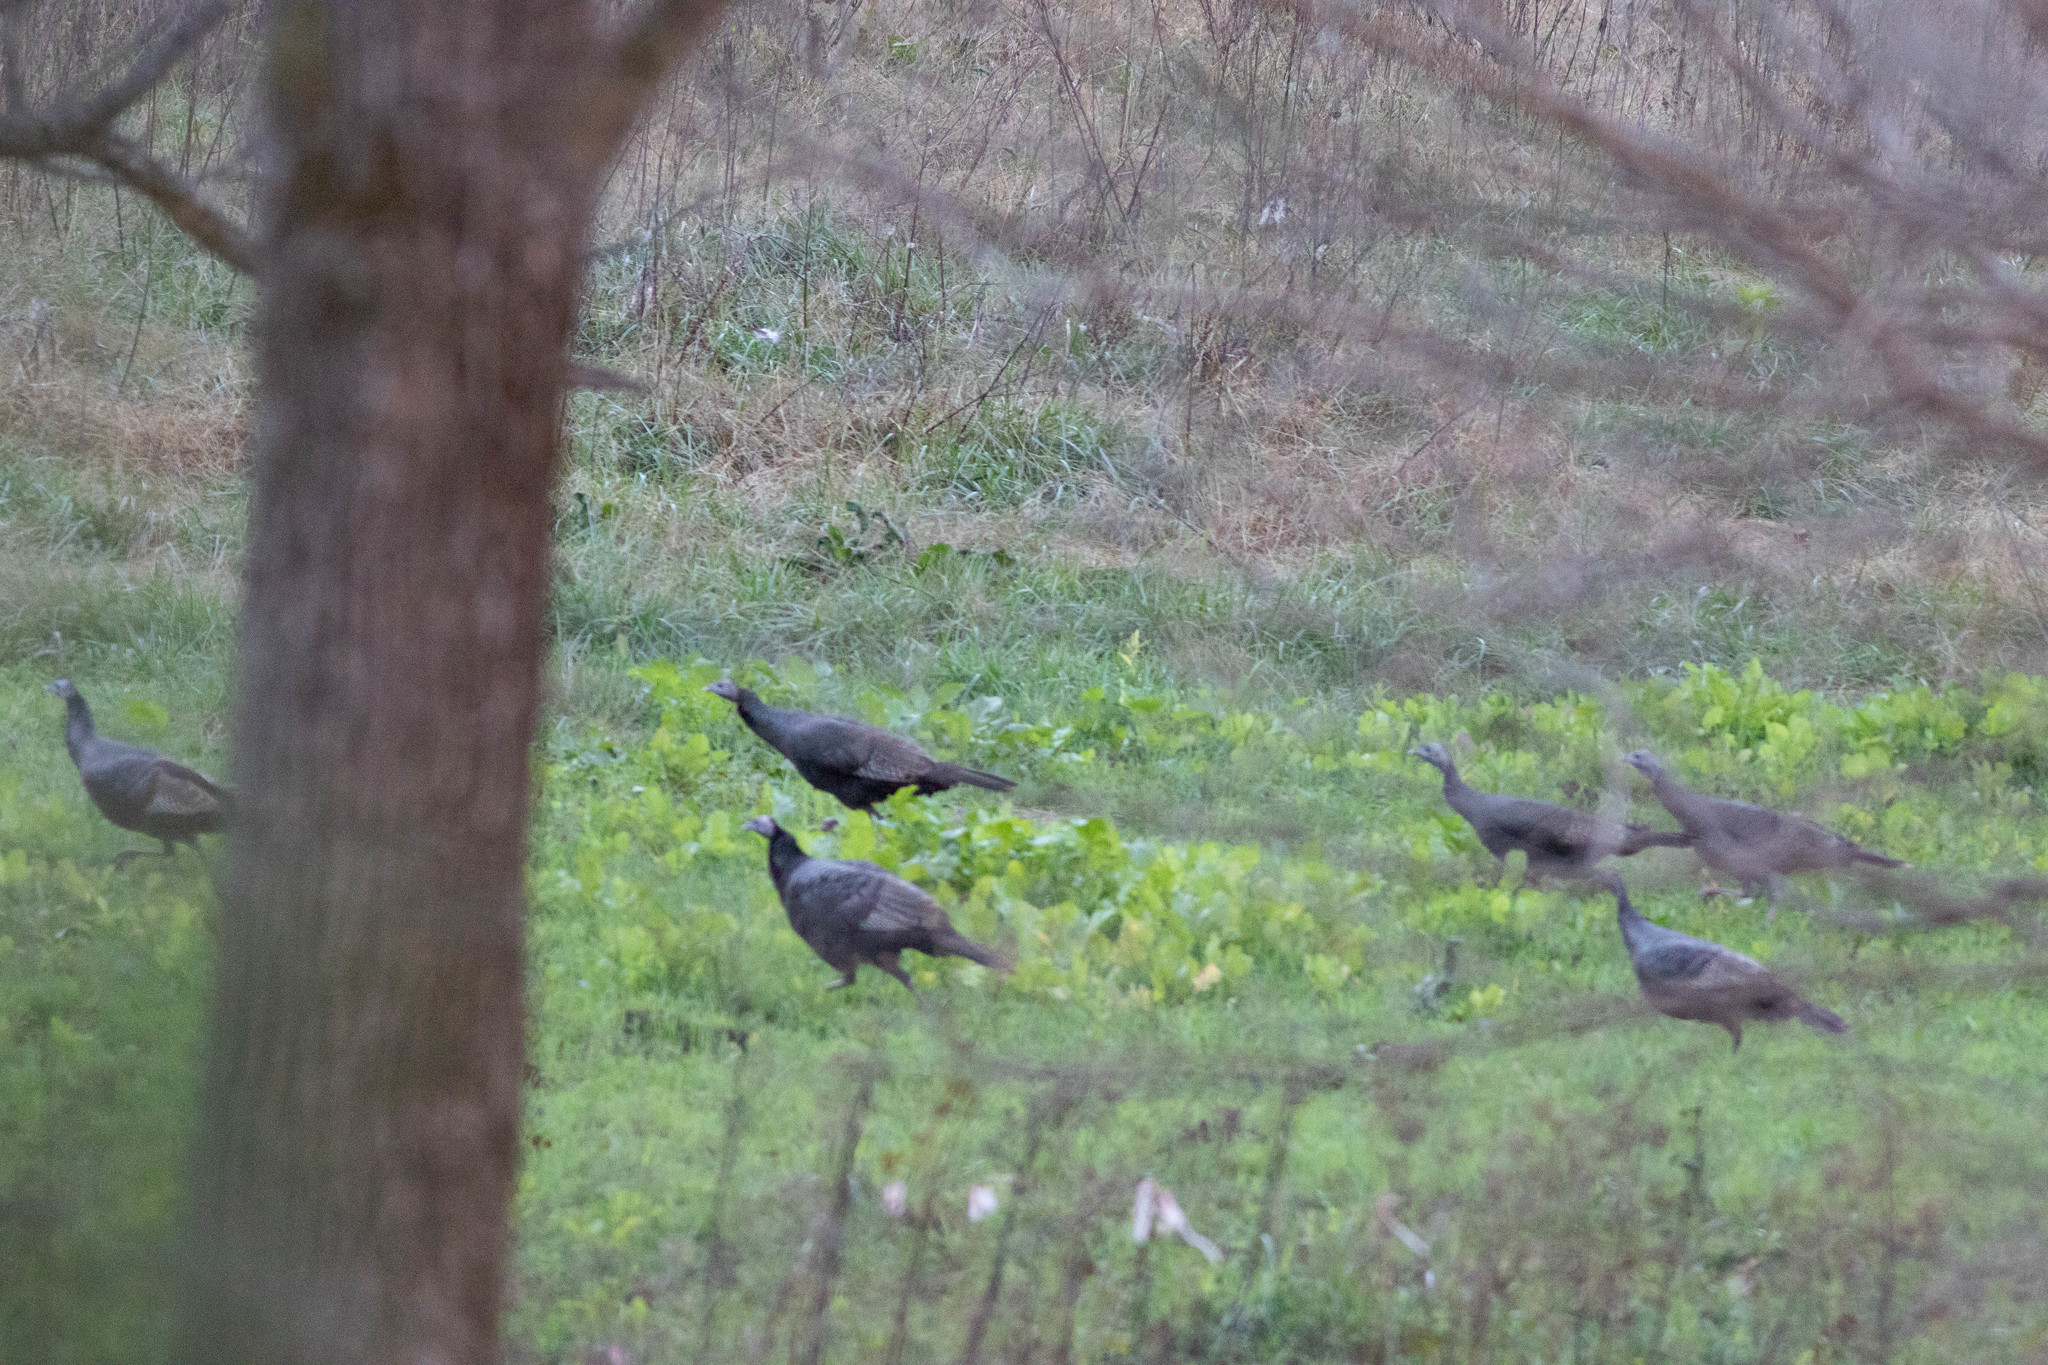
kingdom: Animalia
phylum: Chordata
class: Aves
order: Galliformes
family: Phasianidae
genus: Meleagris
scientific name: Meleagris gallopavo
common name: Wild turkey
